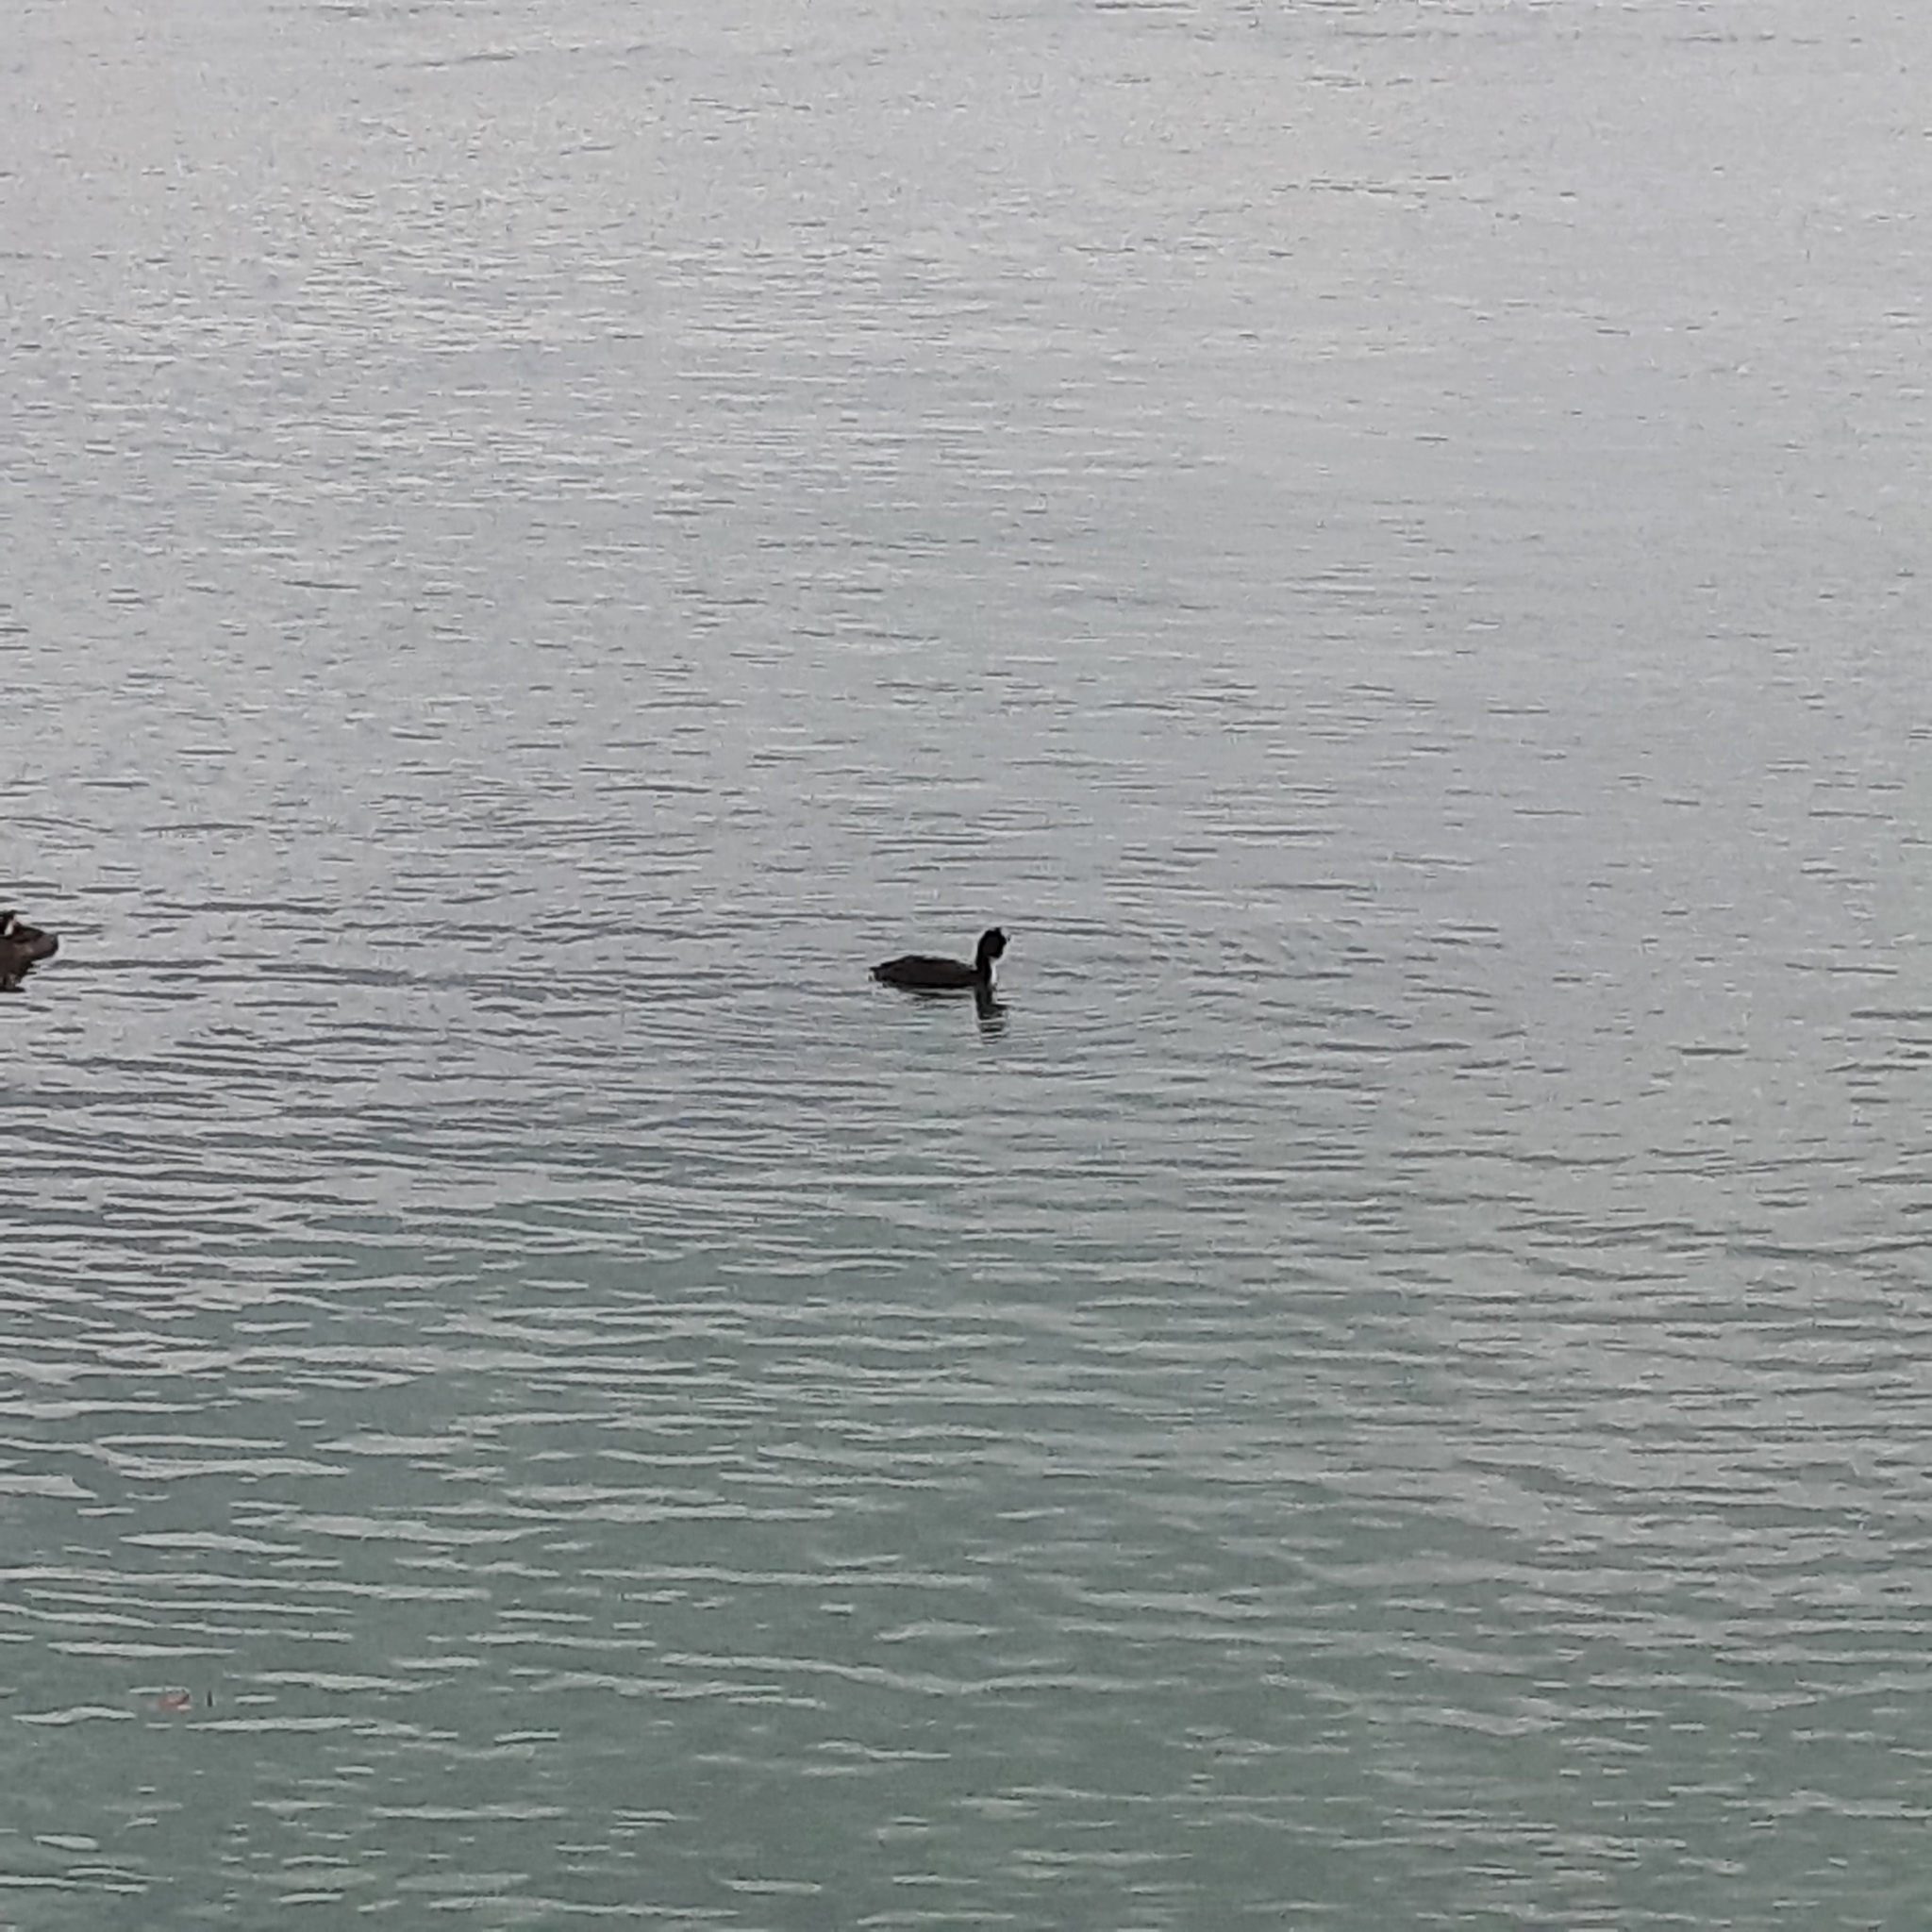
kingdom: Animalia
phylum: Chordata
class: Aves
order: Podicipediformes
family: Podicipedidae
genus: Podiceps
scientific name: Podiceps cristatus
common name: Great crested grebe
